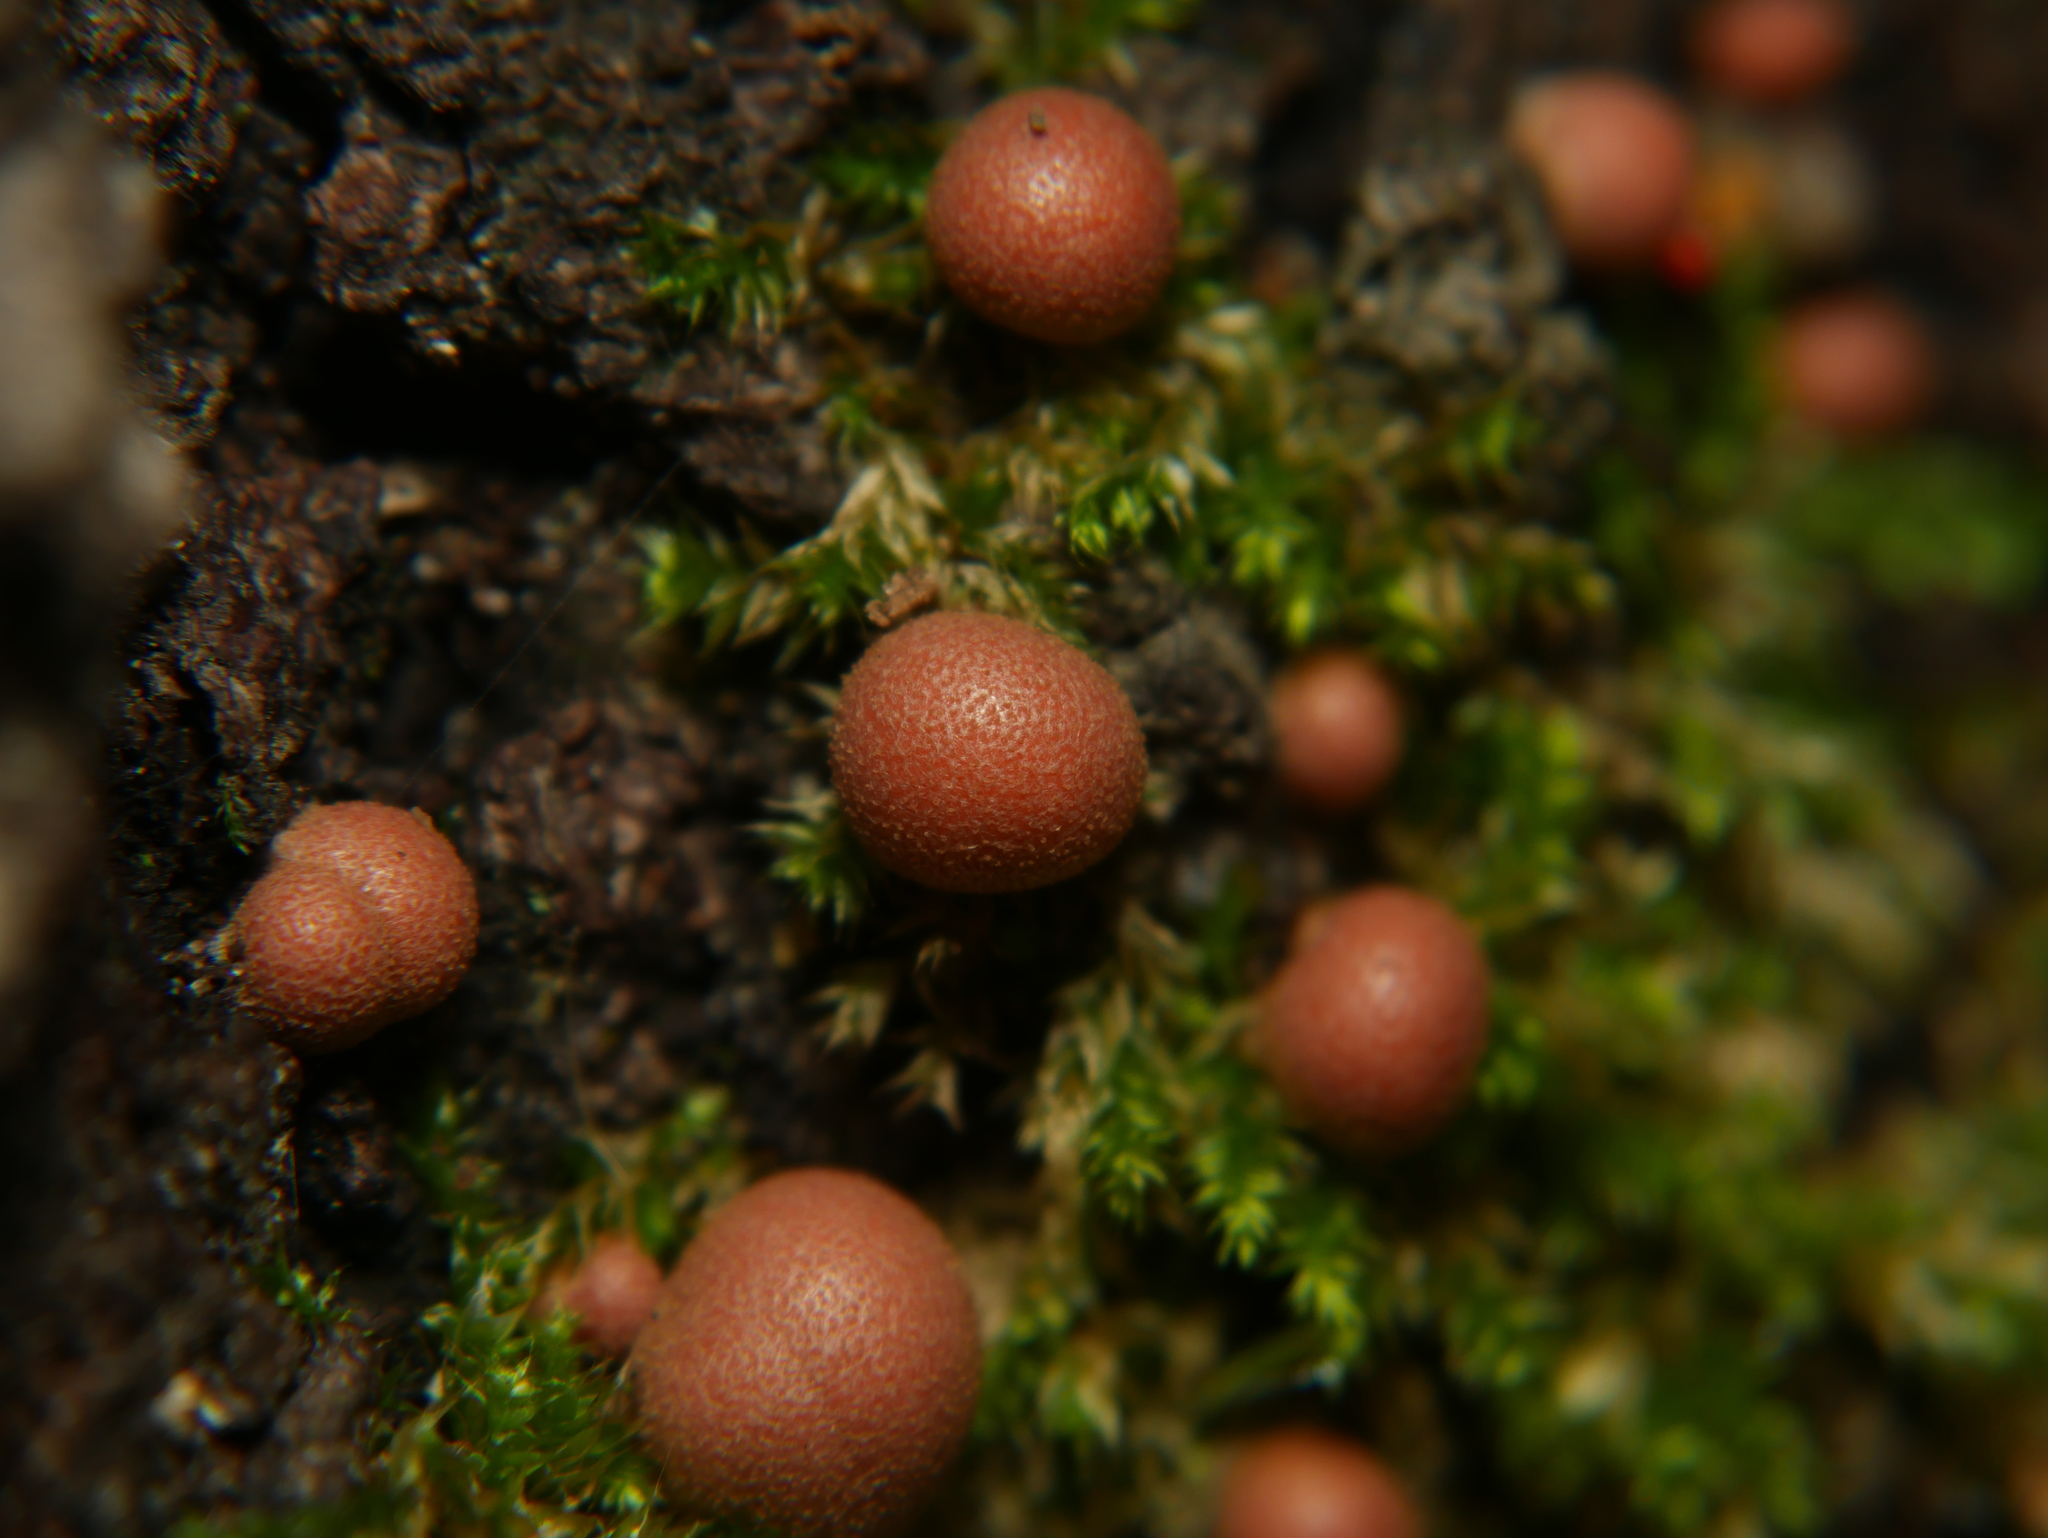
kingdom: Protozoa
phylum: Mycetozoa
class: Myxomycetes
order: Cribrariales
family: Tubiferaceae
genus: Lycogala
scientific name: Lycogala epidendrum
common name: Wolf's milk
